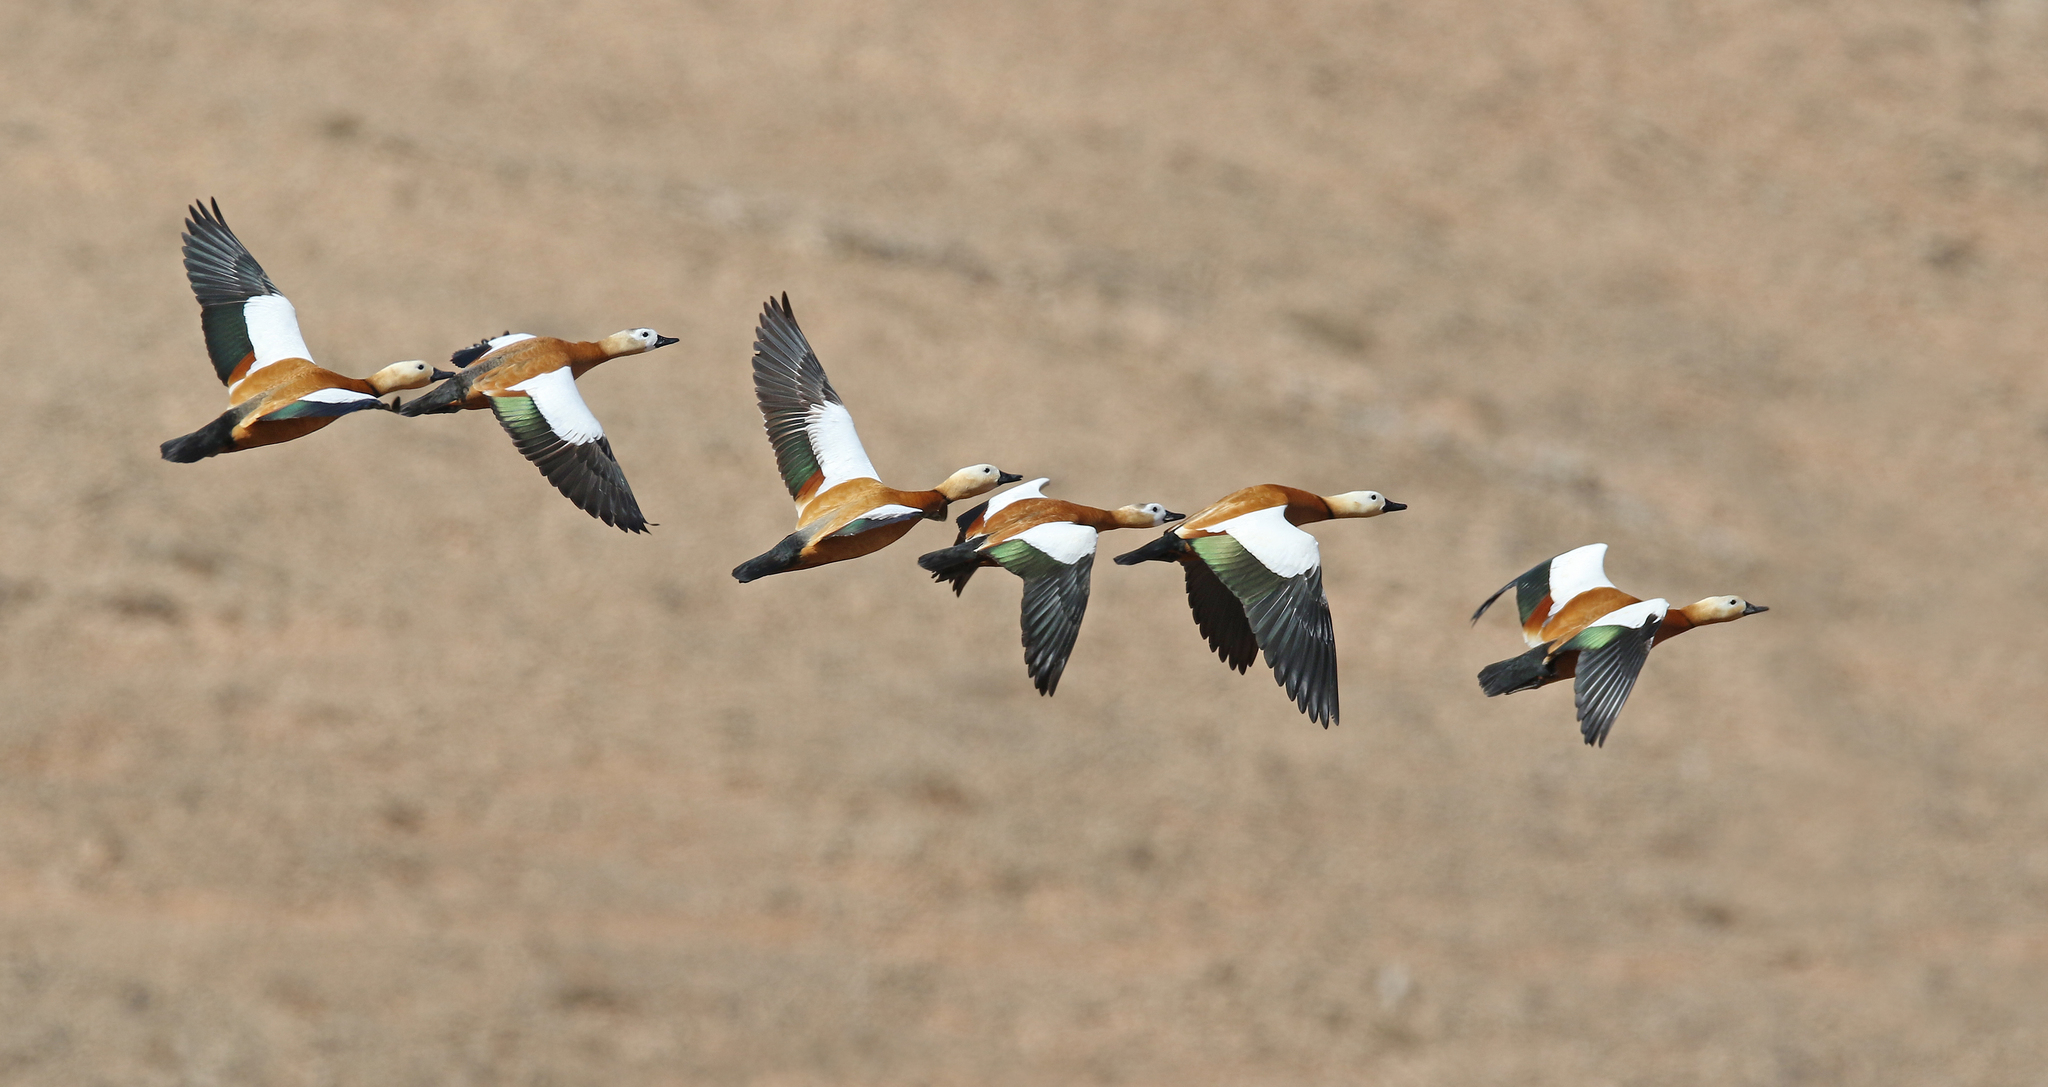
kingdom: Animalia
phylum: Chordata
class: Aves
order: Anseriformes
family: Anatidae
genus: Tadorna
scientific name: Tadorna ferruginea
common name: Ruddy shelduck
